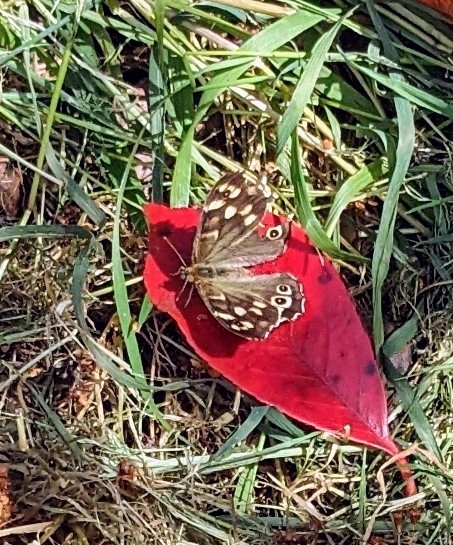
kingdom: Animalia
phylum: Arthropoda
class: Insecta
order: Lepidoptera
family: Nymphalidae
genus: Pararge
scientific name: Pararge aegeria
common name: Speckled wood
